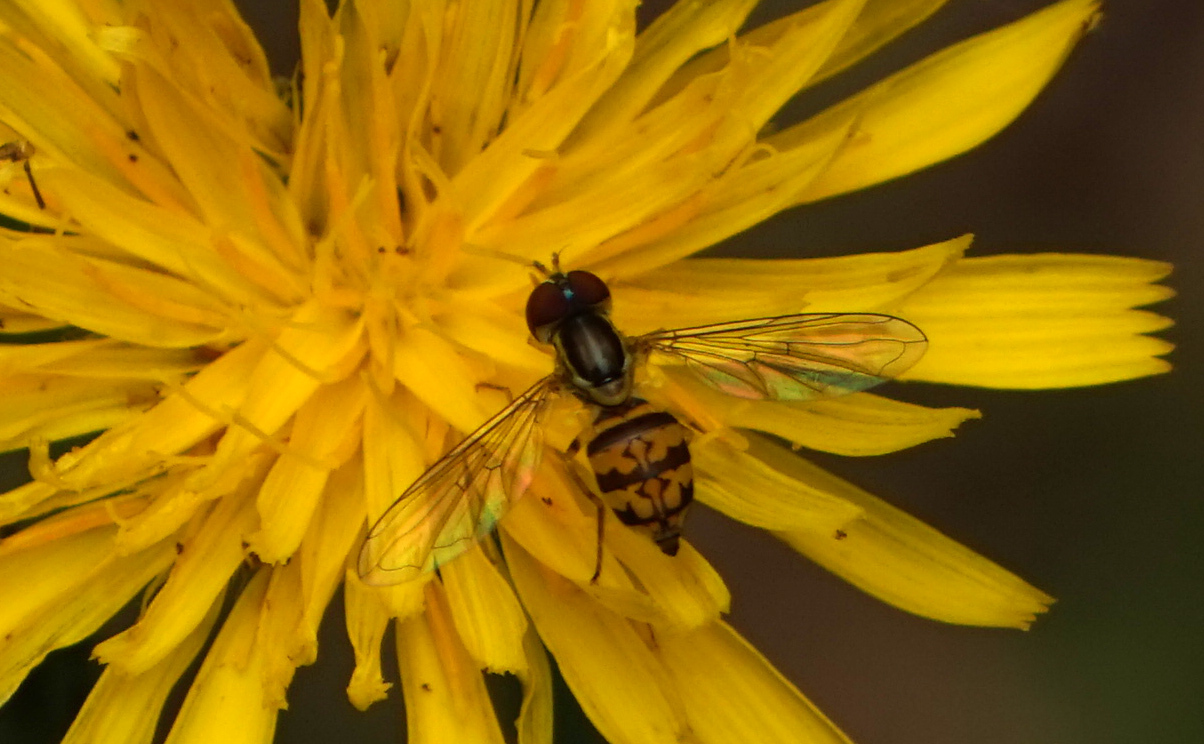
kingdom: Animalia
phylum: Arthropoda
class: Insecta
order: Diptera
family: Syrphidae
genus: Toxomerus
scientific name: Toxomerus geminatus
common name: Eastern calligrapher
